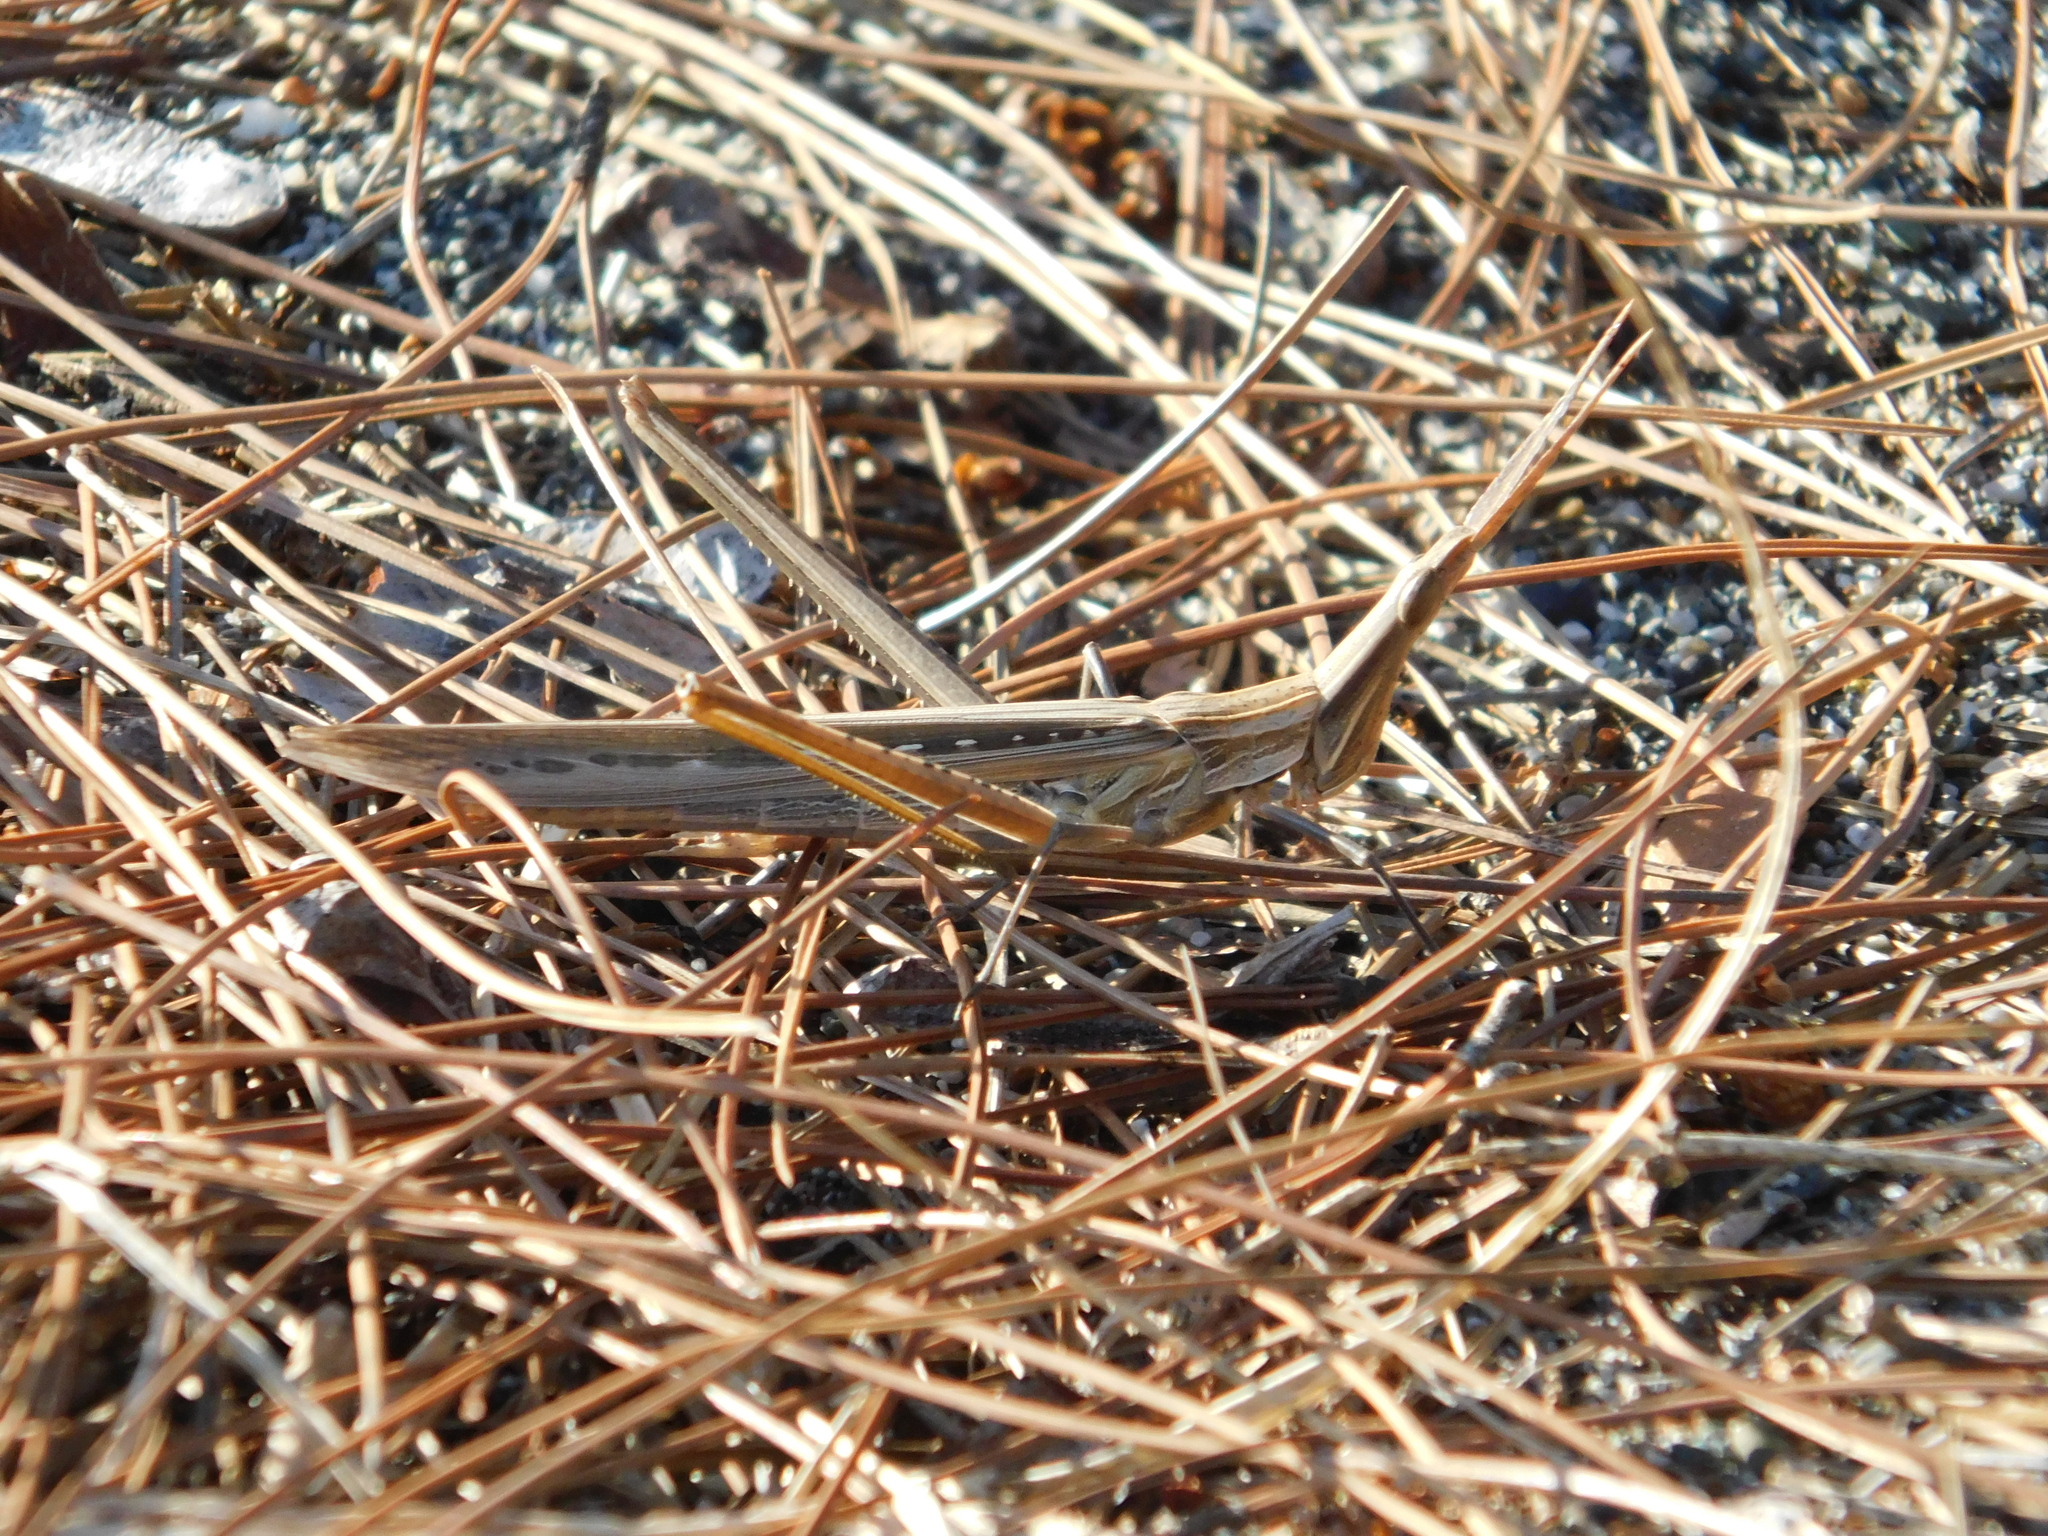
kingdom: Animalia
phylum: Arthropoda
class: Insecta
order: Orthoptera
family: Acrididae
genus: Acrida
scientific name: Acrida ungarica
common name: Common cone-headed grasshopper
